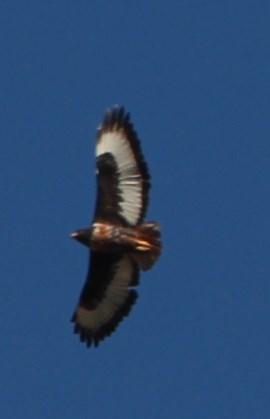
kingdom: Animalia
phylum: Chordata
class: Aves
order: Accipitriformes
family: Accipitridae
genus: Buteo
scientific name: Buteo rufofuscus
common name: Jackal buzzard
